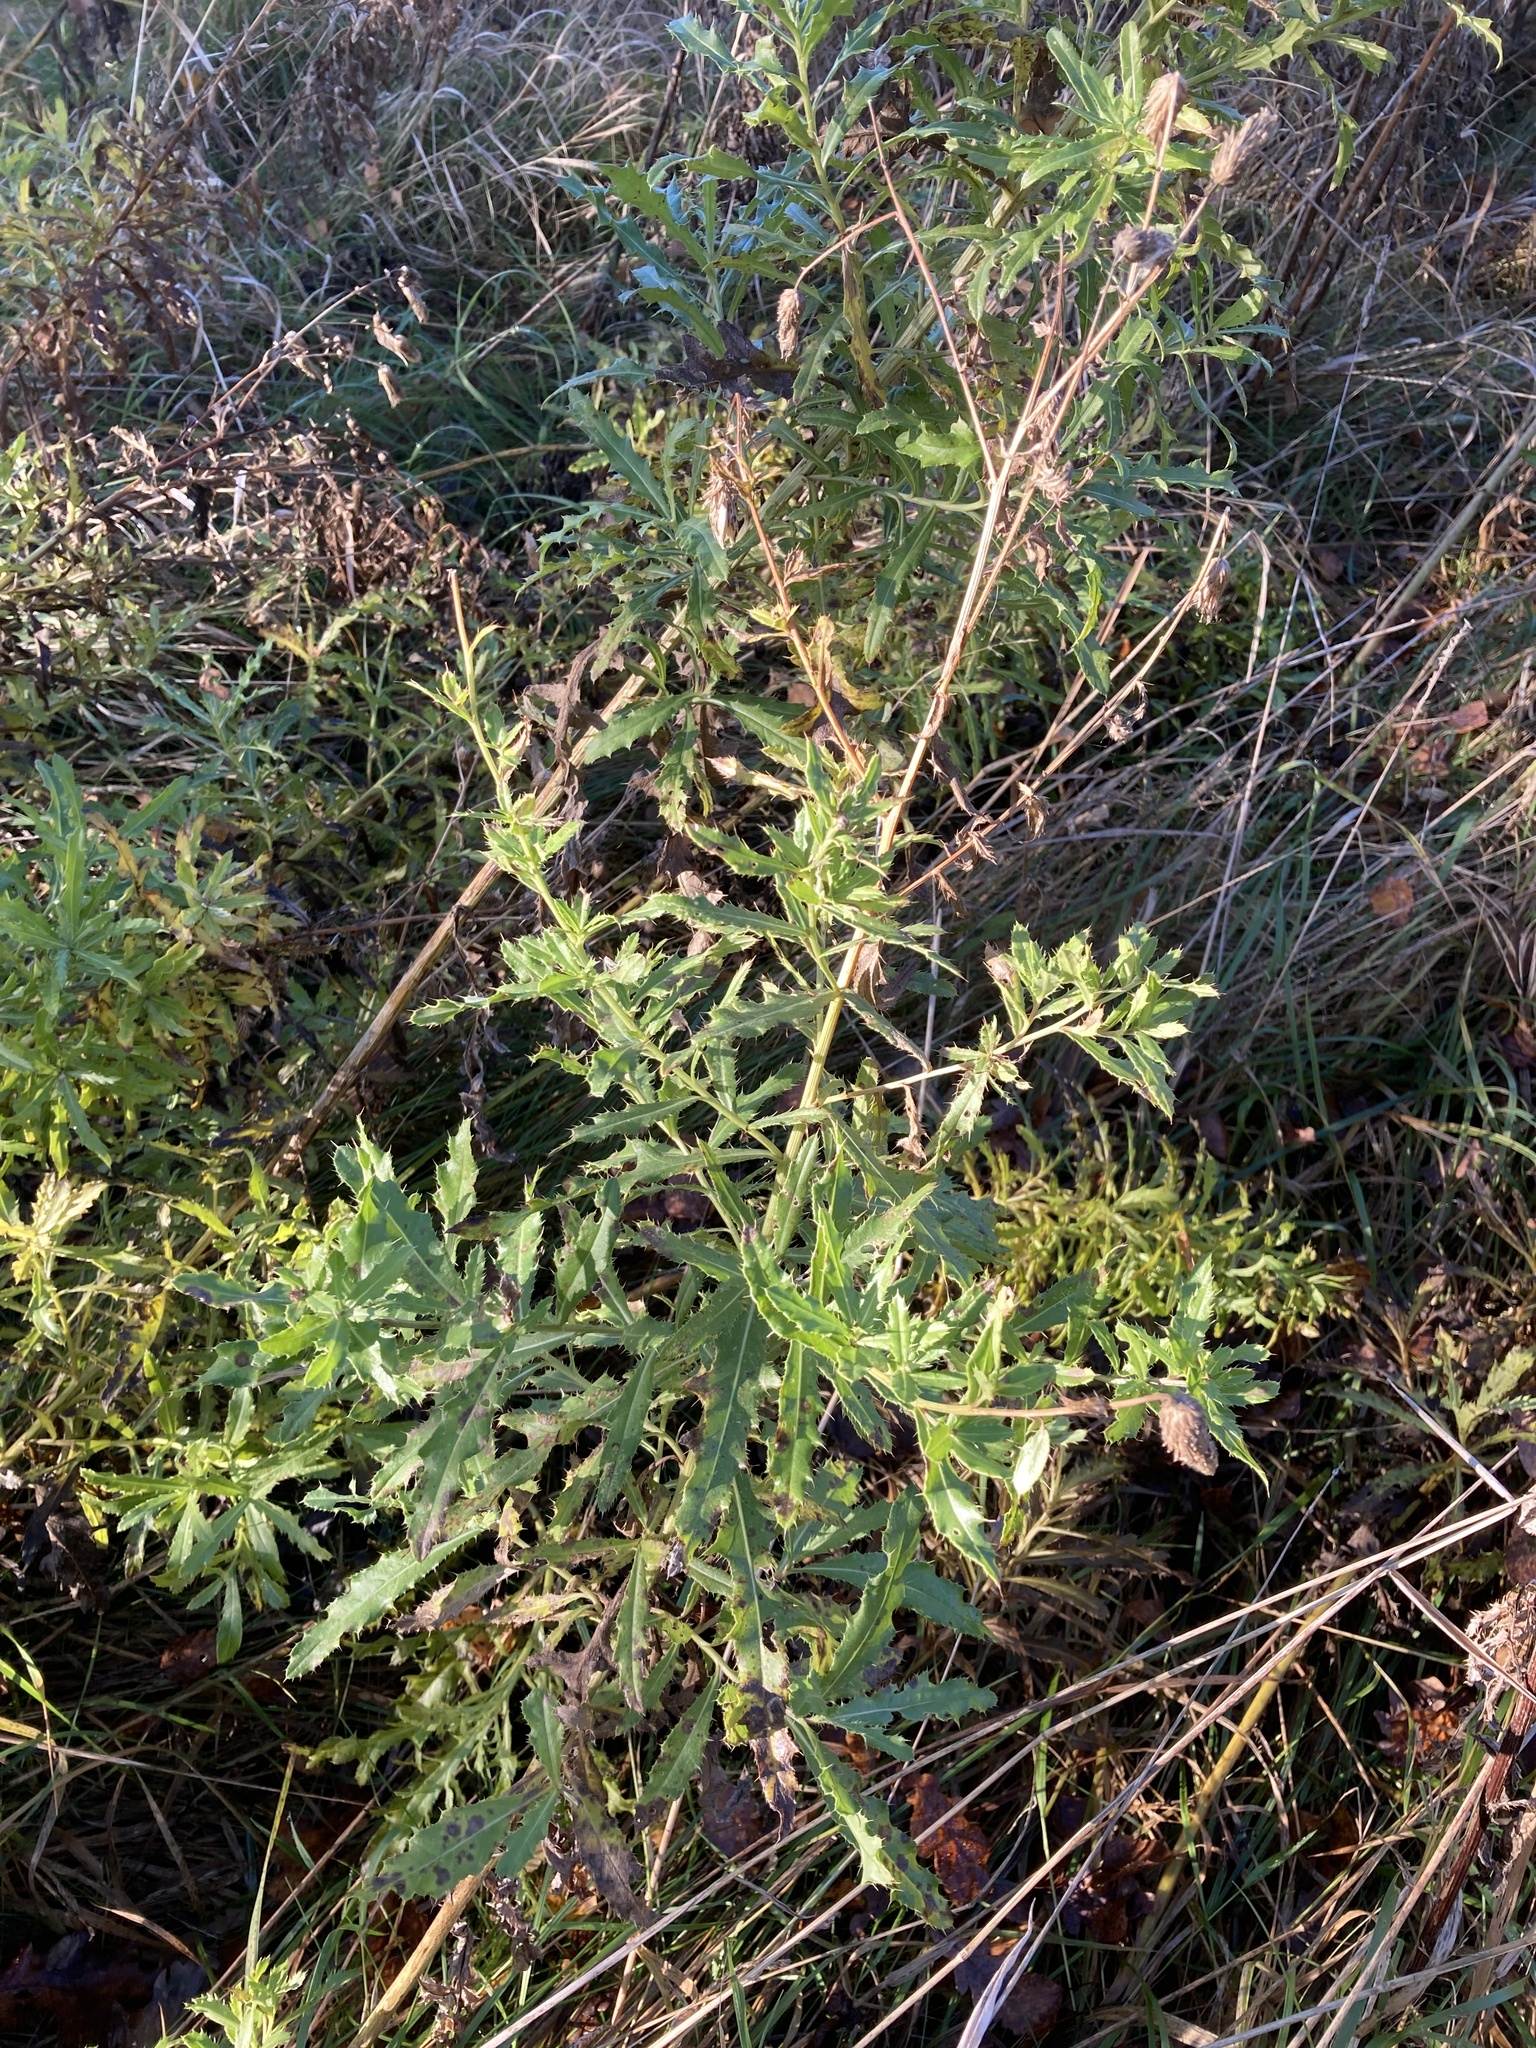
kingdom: Plantae
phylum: Tracheophyta
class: Magnoliopsida
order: Asterales
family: Asteraceae
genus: Cirsium
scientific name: Cirsium arvense
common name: Creeping thistle
